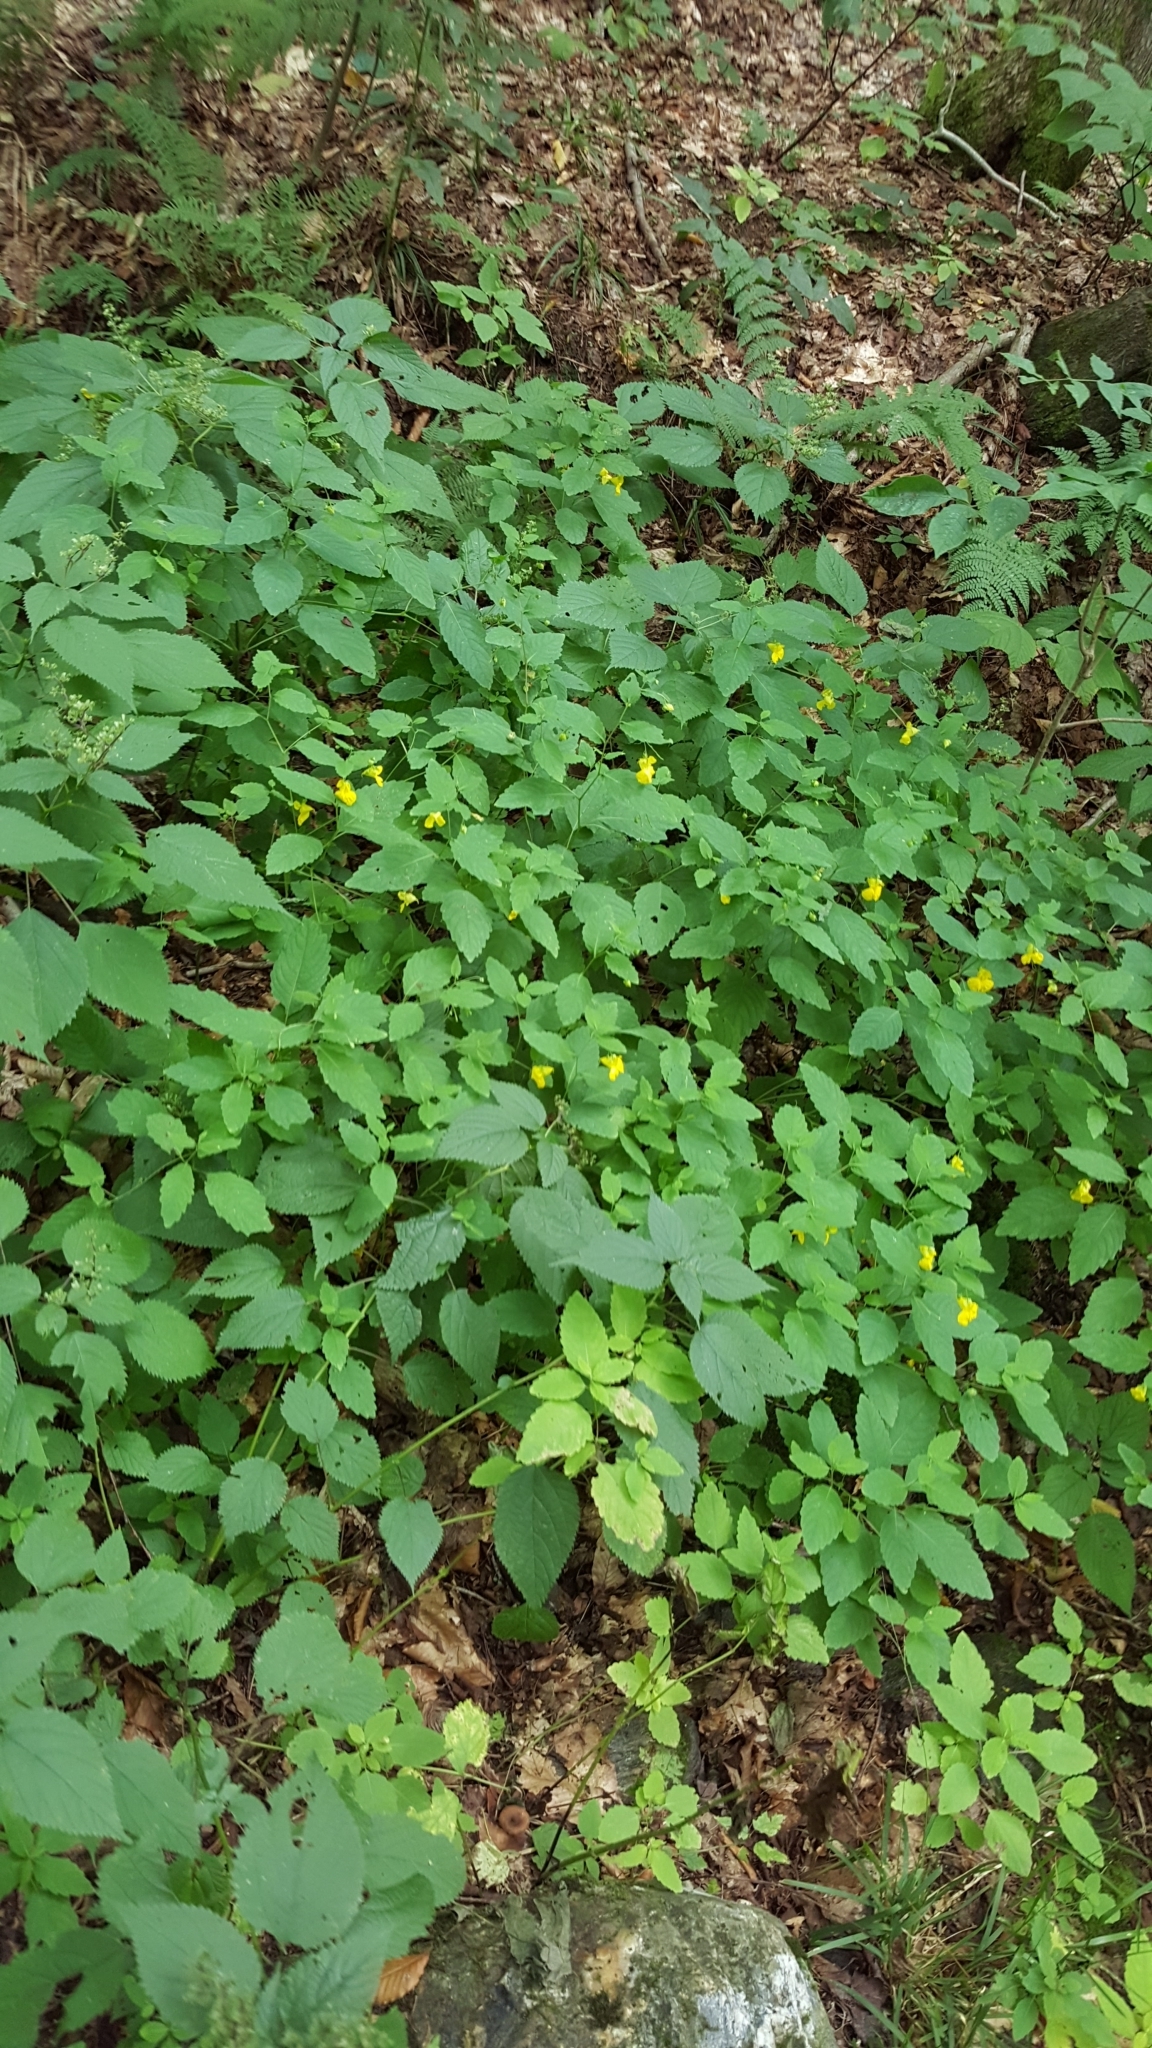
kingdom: Plantae
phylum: Tracheophyta
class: Magnoliopsida
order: Ericales
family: Balsaminaceae
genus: Impatiens
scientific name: Impatiens pallida
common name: Pale snapweed
